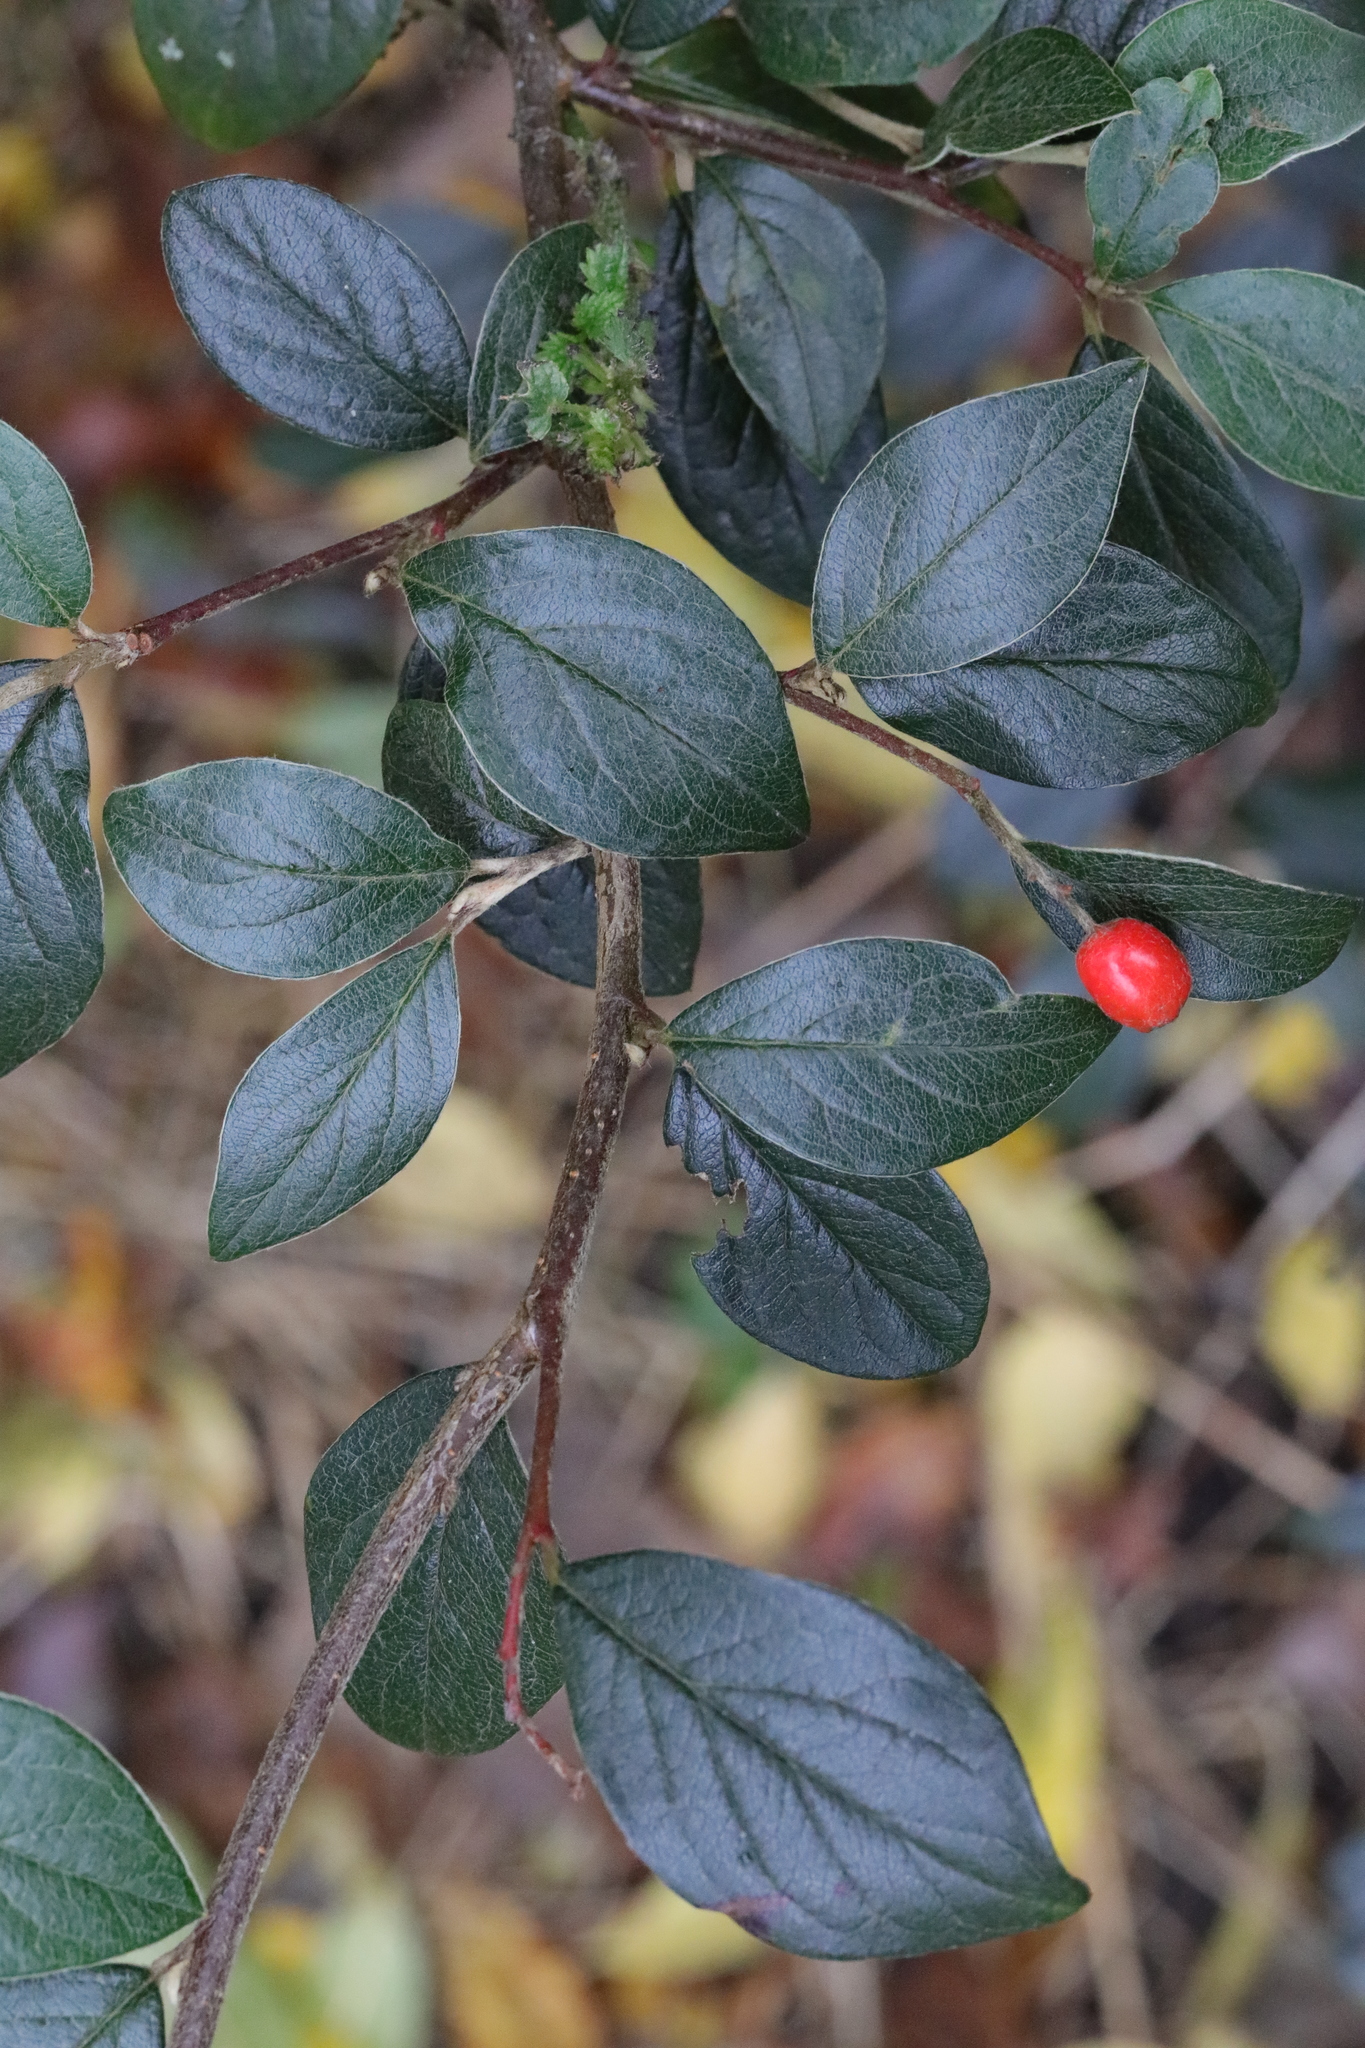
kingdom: Plantae
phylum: Tracheophyta
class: Magnoliopsida
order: Rosales
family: Rosaceae
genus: Cotoneaster
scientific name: Cotoneaster franchetii
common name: Franchet's cotoneaster
